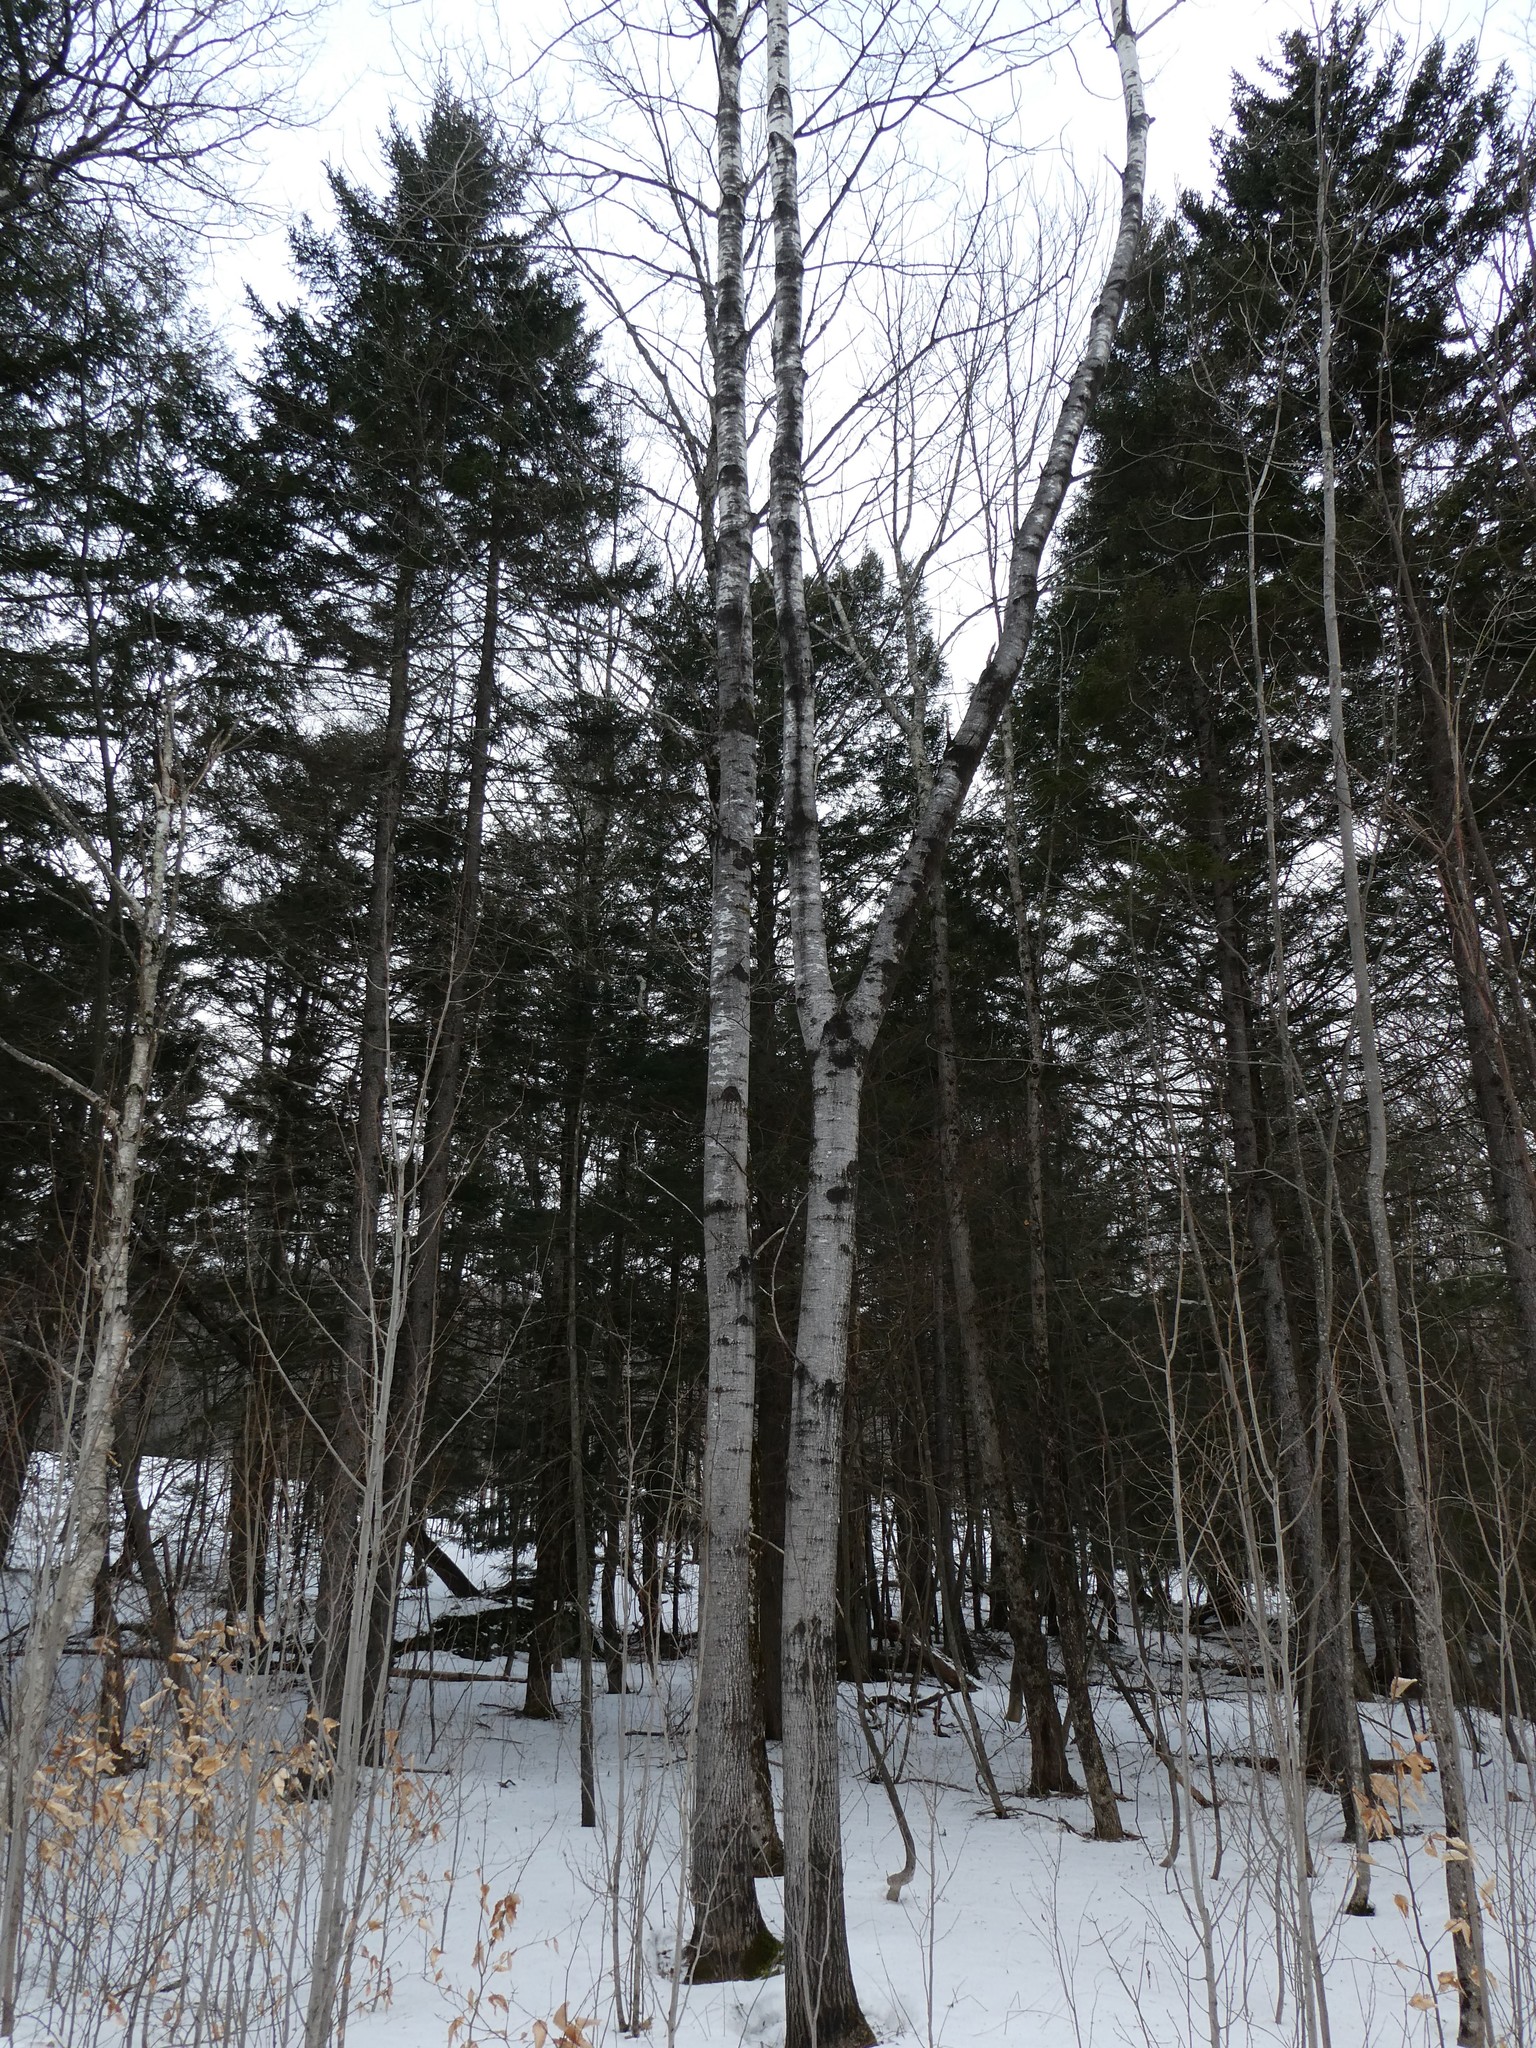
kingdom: Animalia
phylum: Arthropoda
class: Insecta
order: Lepidoptera
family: Nepticulidae
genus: Ectoedemia
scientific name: Ectoedemia populella
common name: Aspen petiole gall moth
